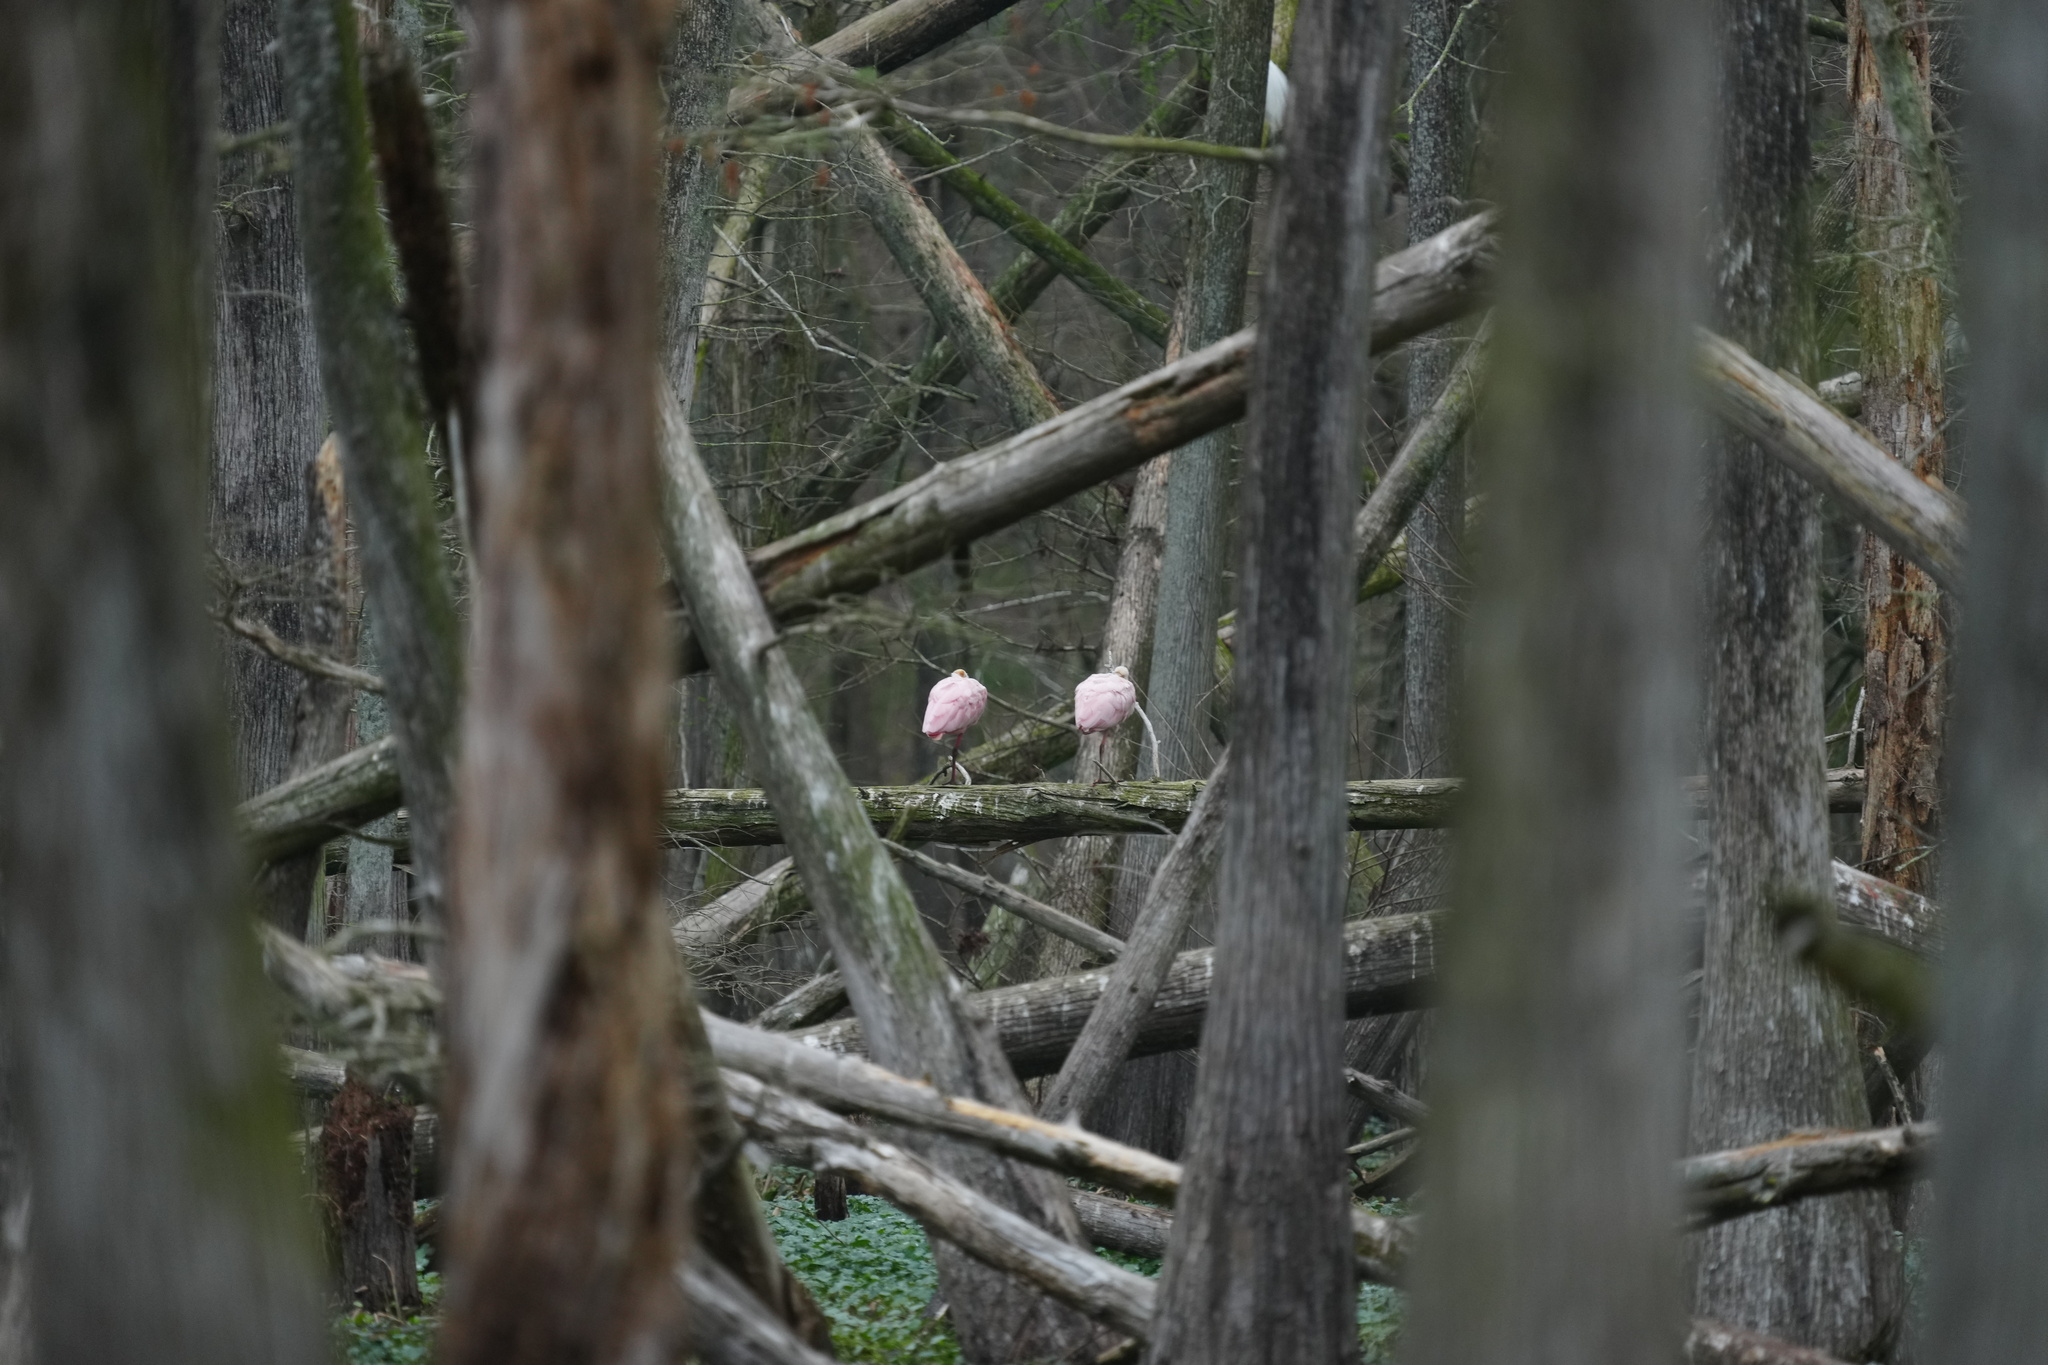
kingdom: Animalia
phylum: Chordata
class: Aves
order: Pelecaniformes
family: Threskiornithidae
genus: Platalea
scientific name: Platalea ajaja
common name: Roseate spoonbill
